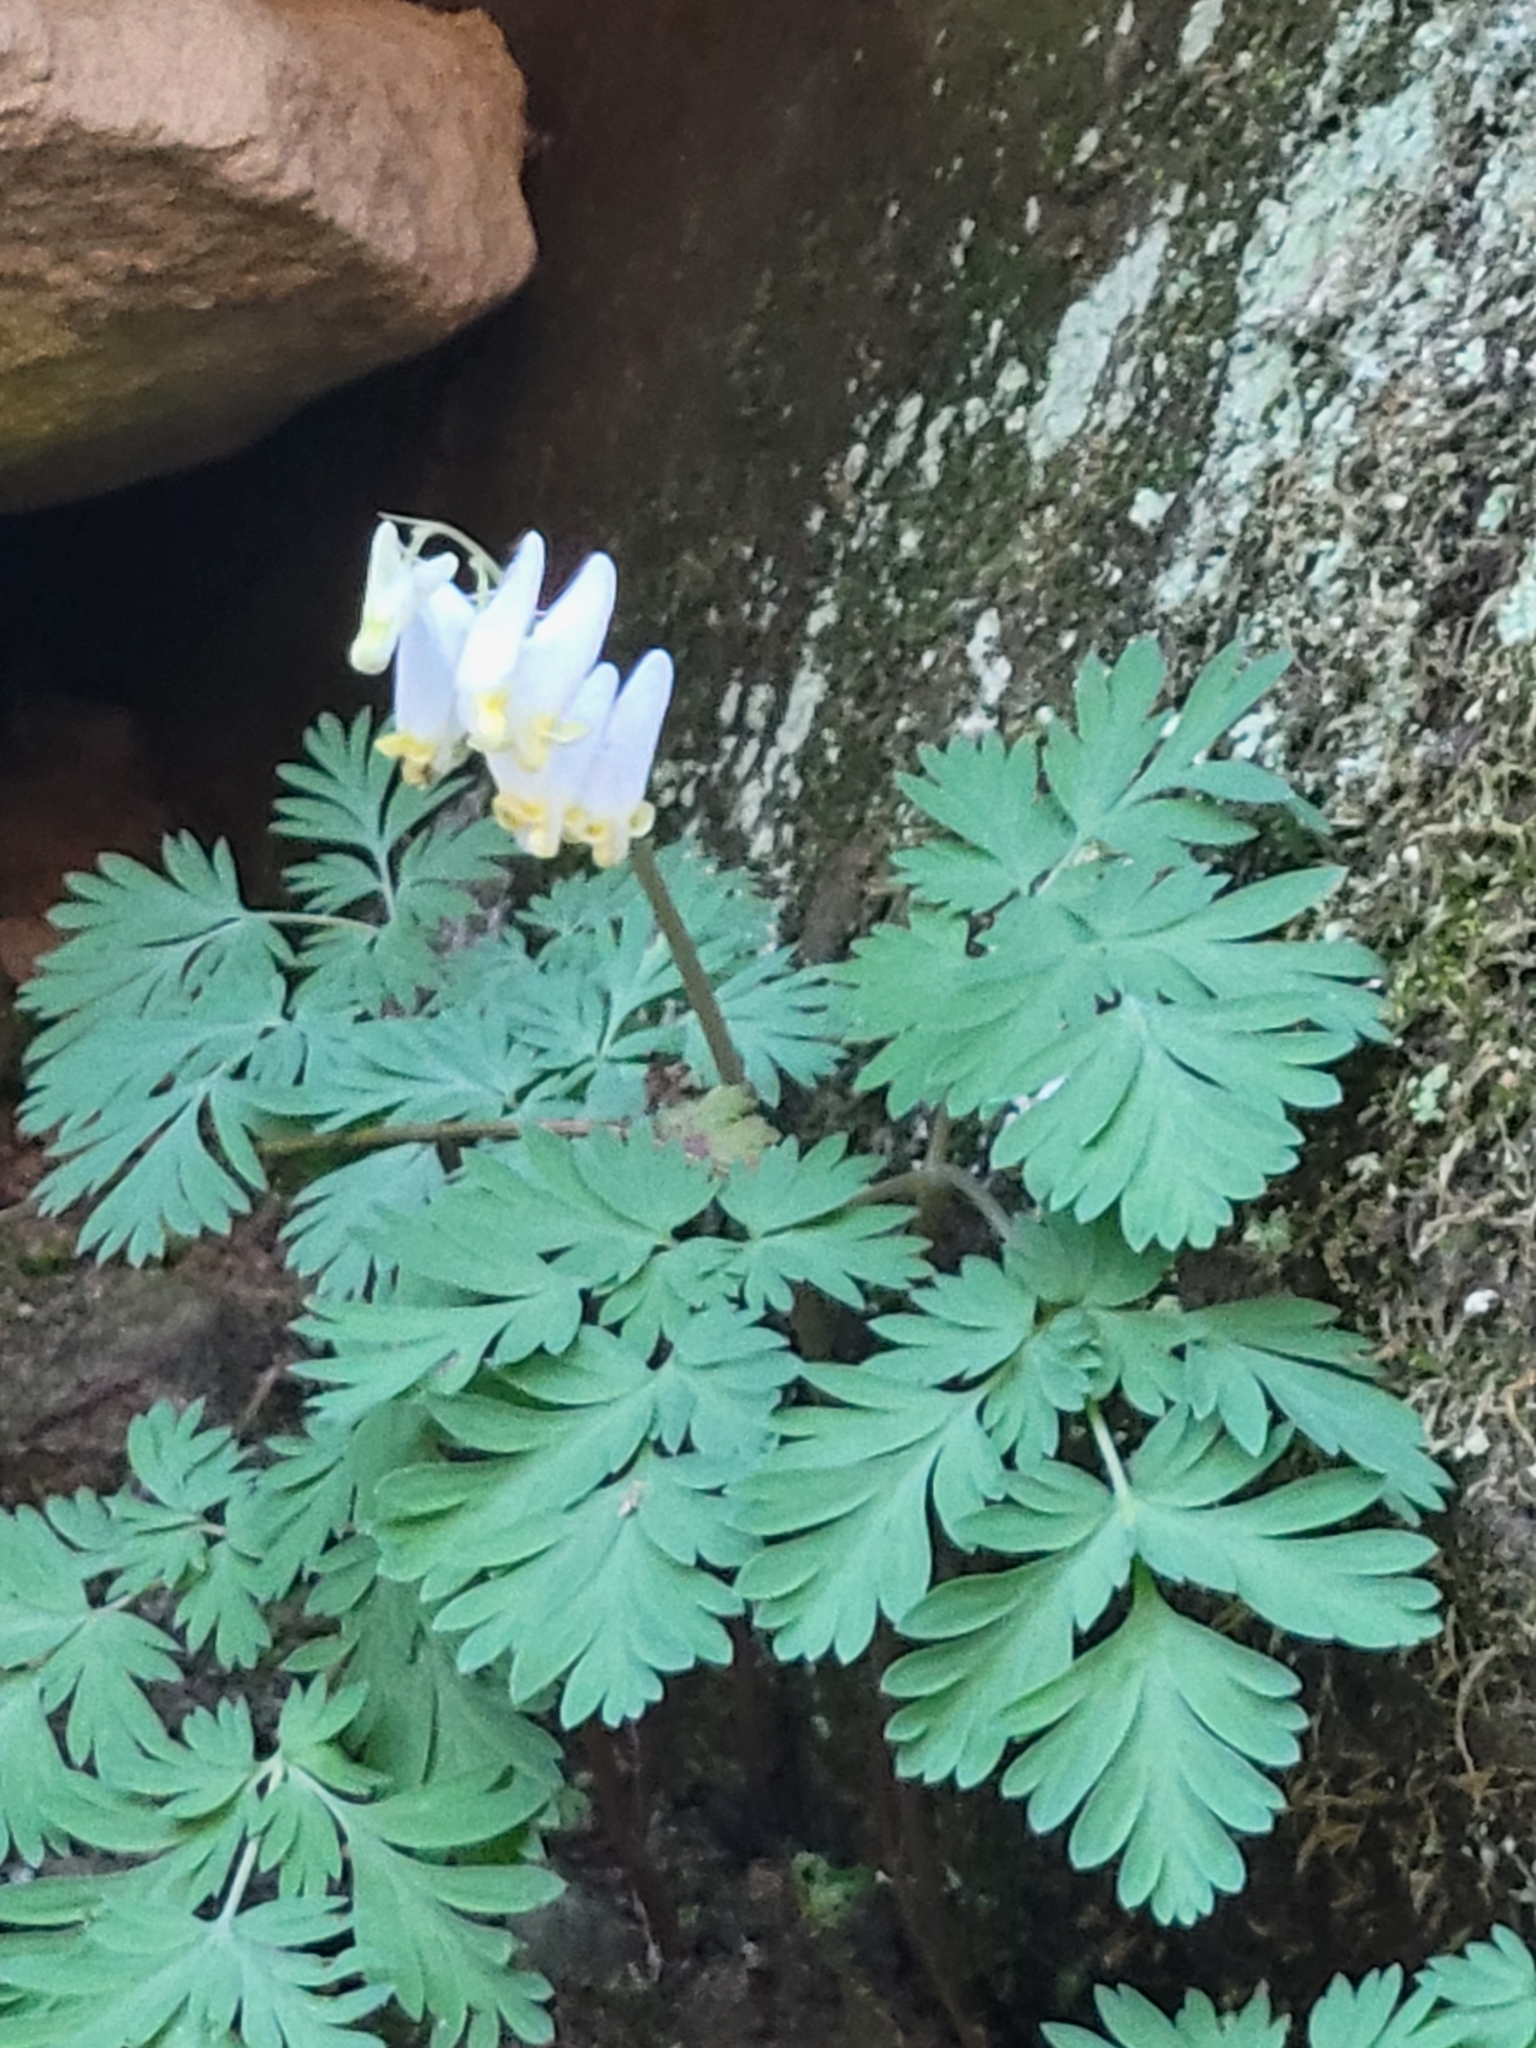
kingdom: Plantae
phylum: Tracheophyta
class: Magnoliopsida
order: Ranunculales
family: Papaveraceae
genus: Dicentra
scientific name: Dicentra cucullaria
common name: Dutchman's breeches
